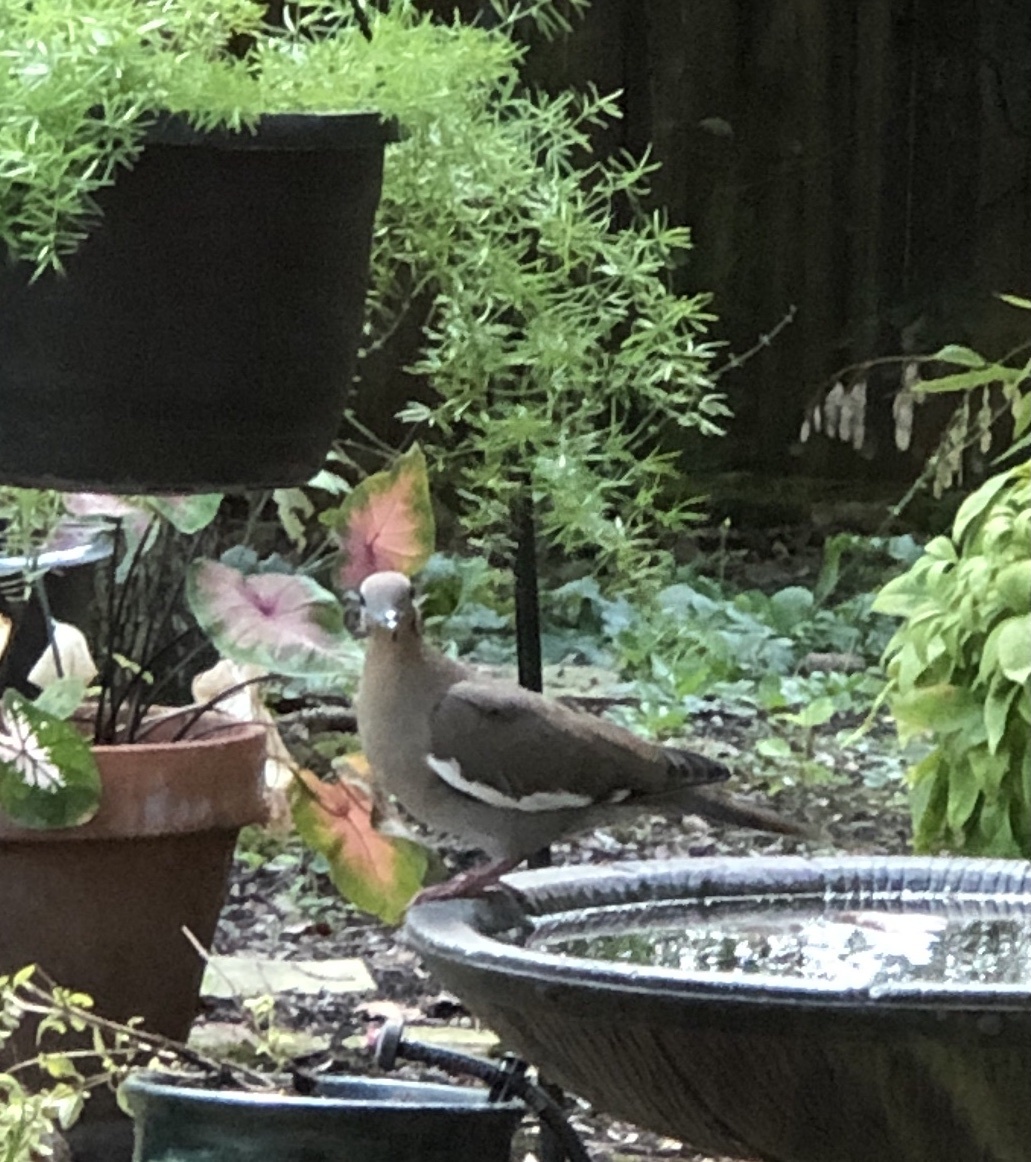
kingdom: Animalia
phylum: Chordata
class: Aves
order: Columbiformes
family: Columbidae
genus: Zenaida
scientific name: Zenaida asiatica
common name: White-winged dove
